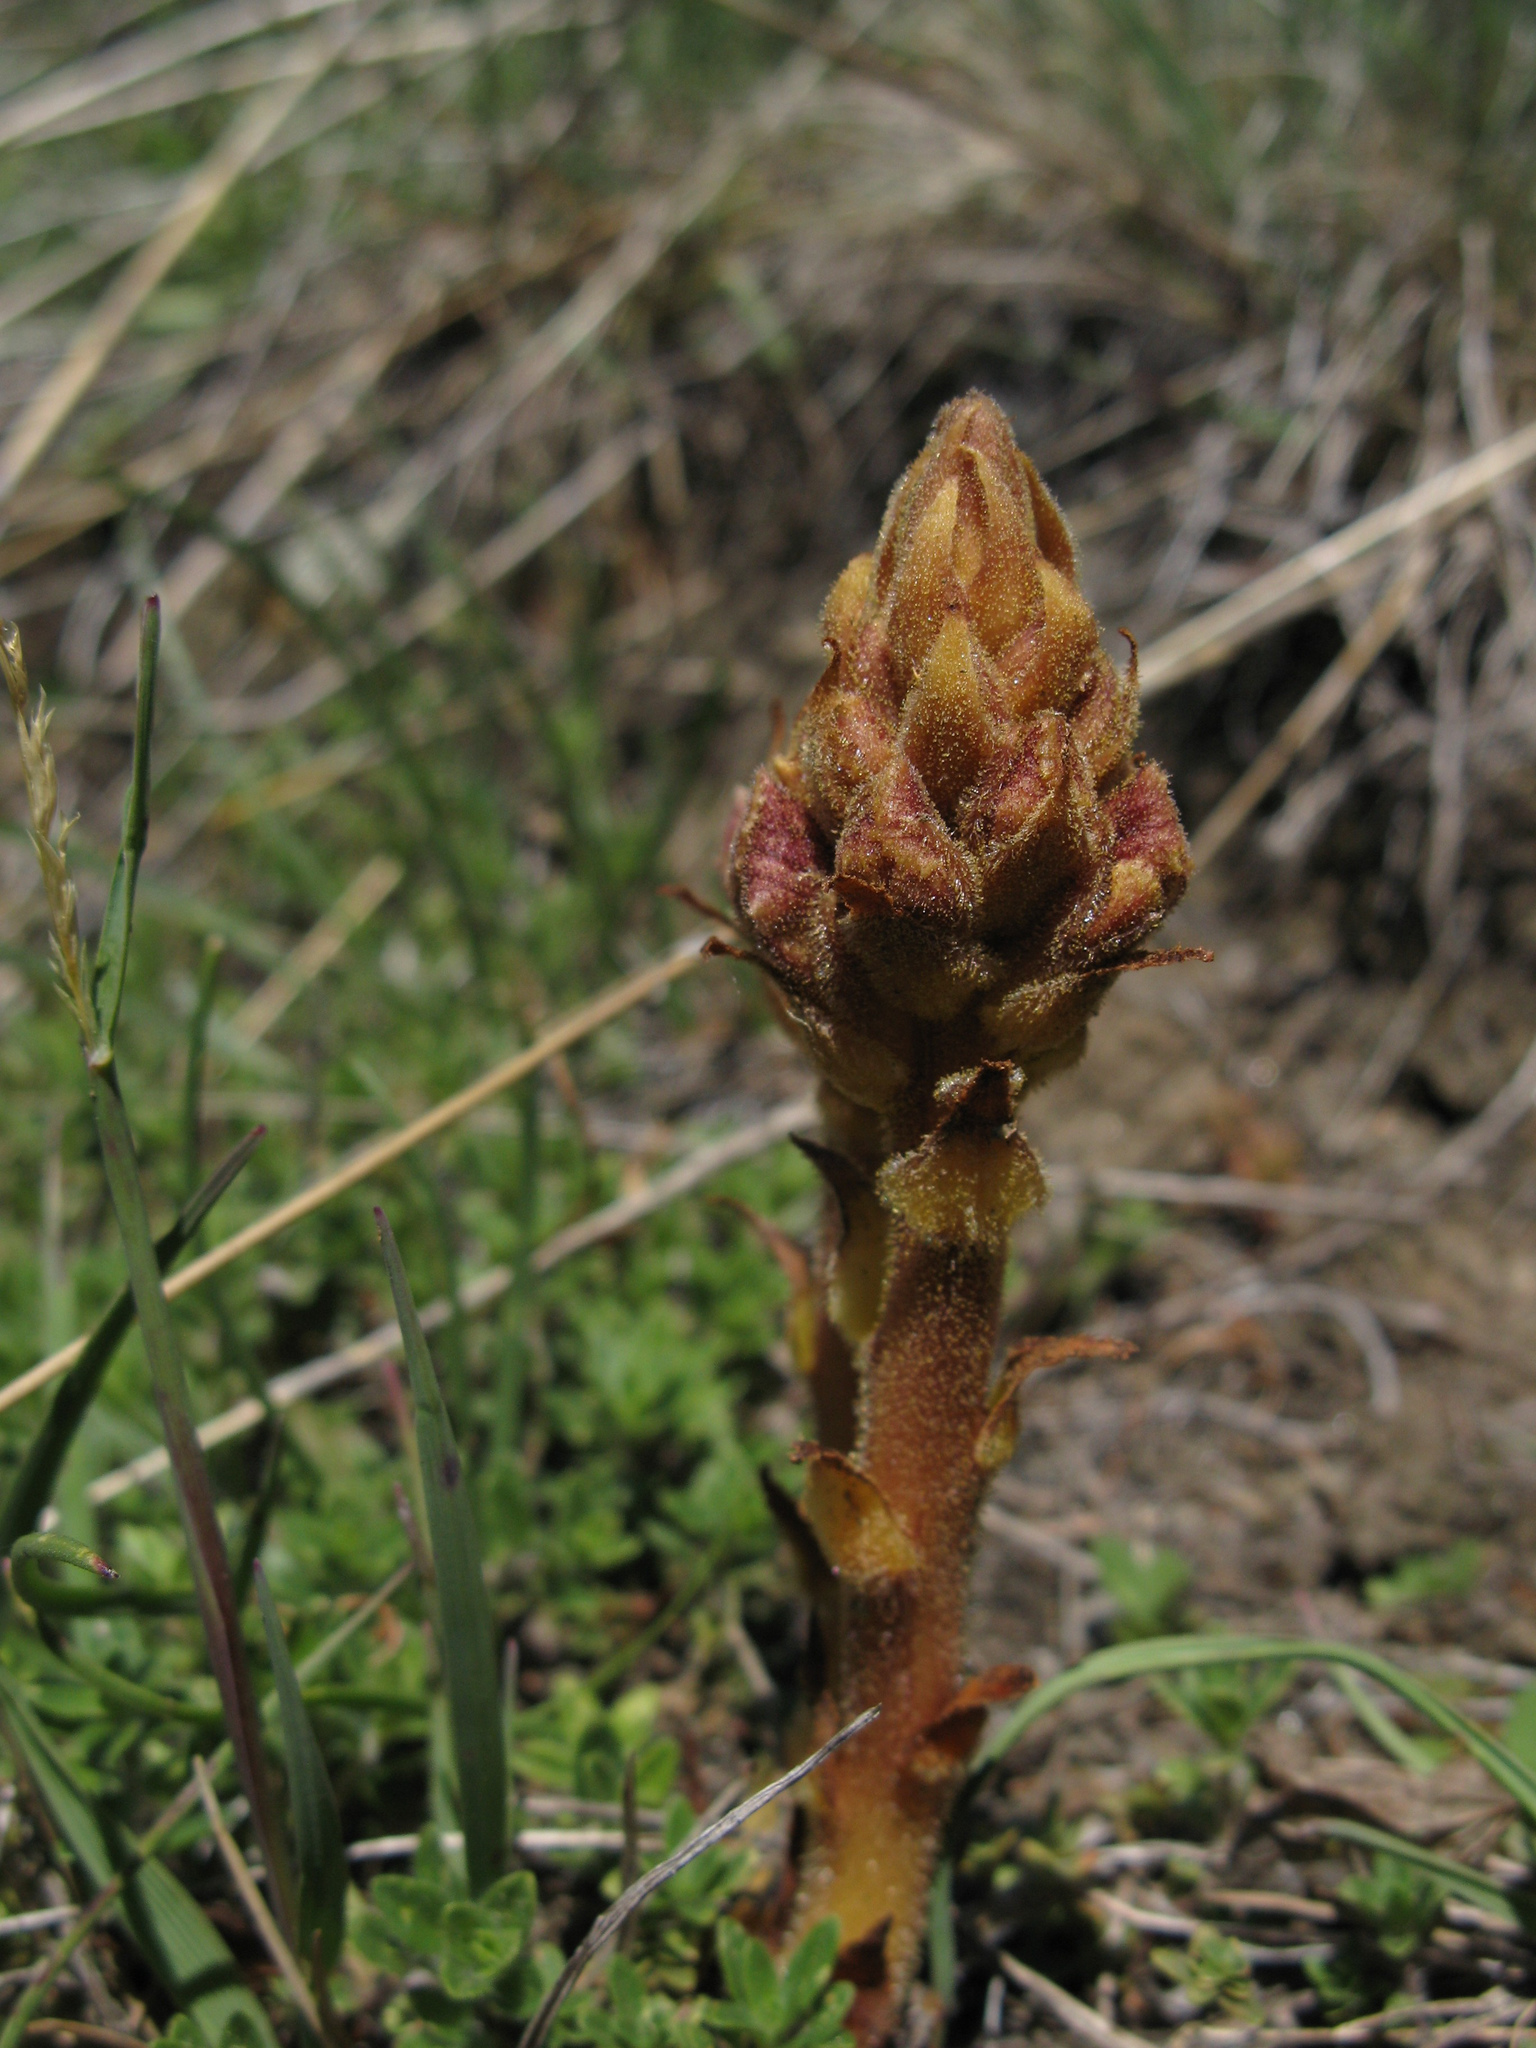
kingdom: Plantae
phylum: Tracheophyta
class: Magnoliopsida
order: Lamiales
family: Orobanchaceae
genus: Orobanche
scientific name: Orobanche alba
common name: Thyme broomrape
